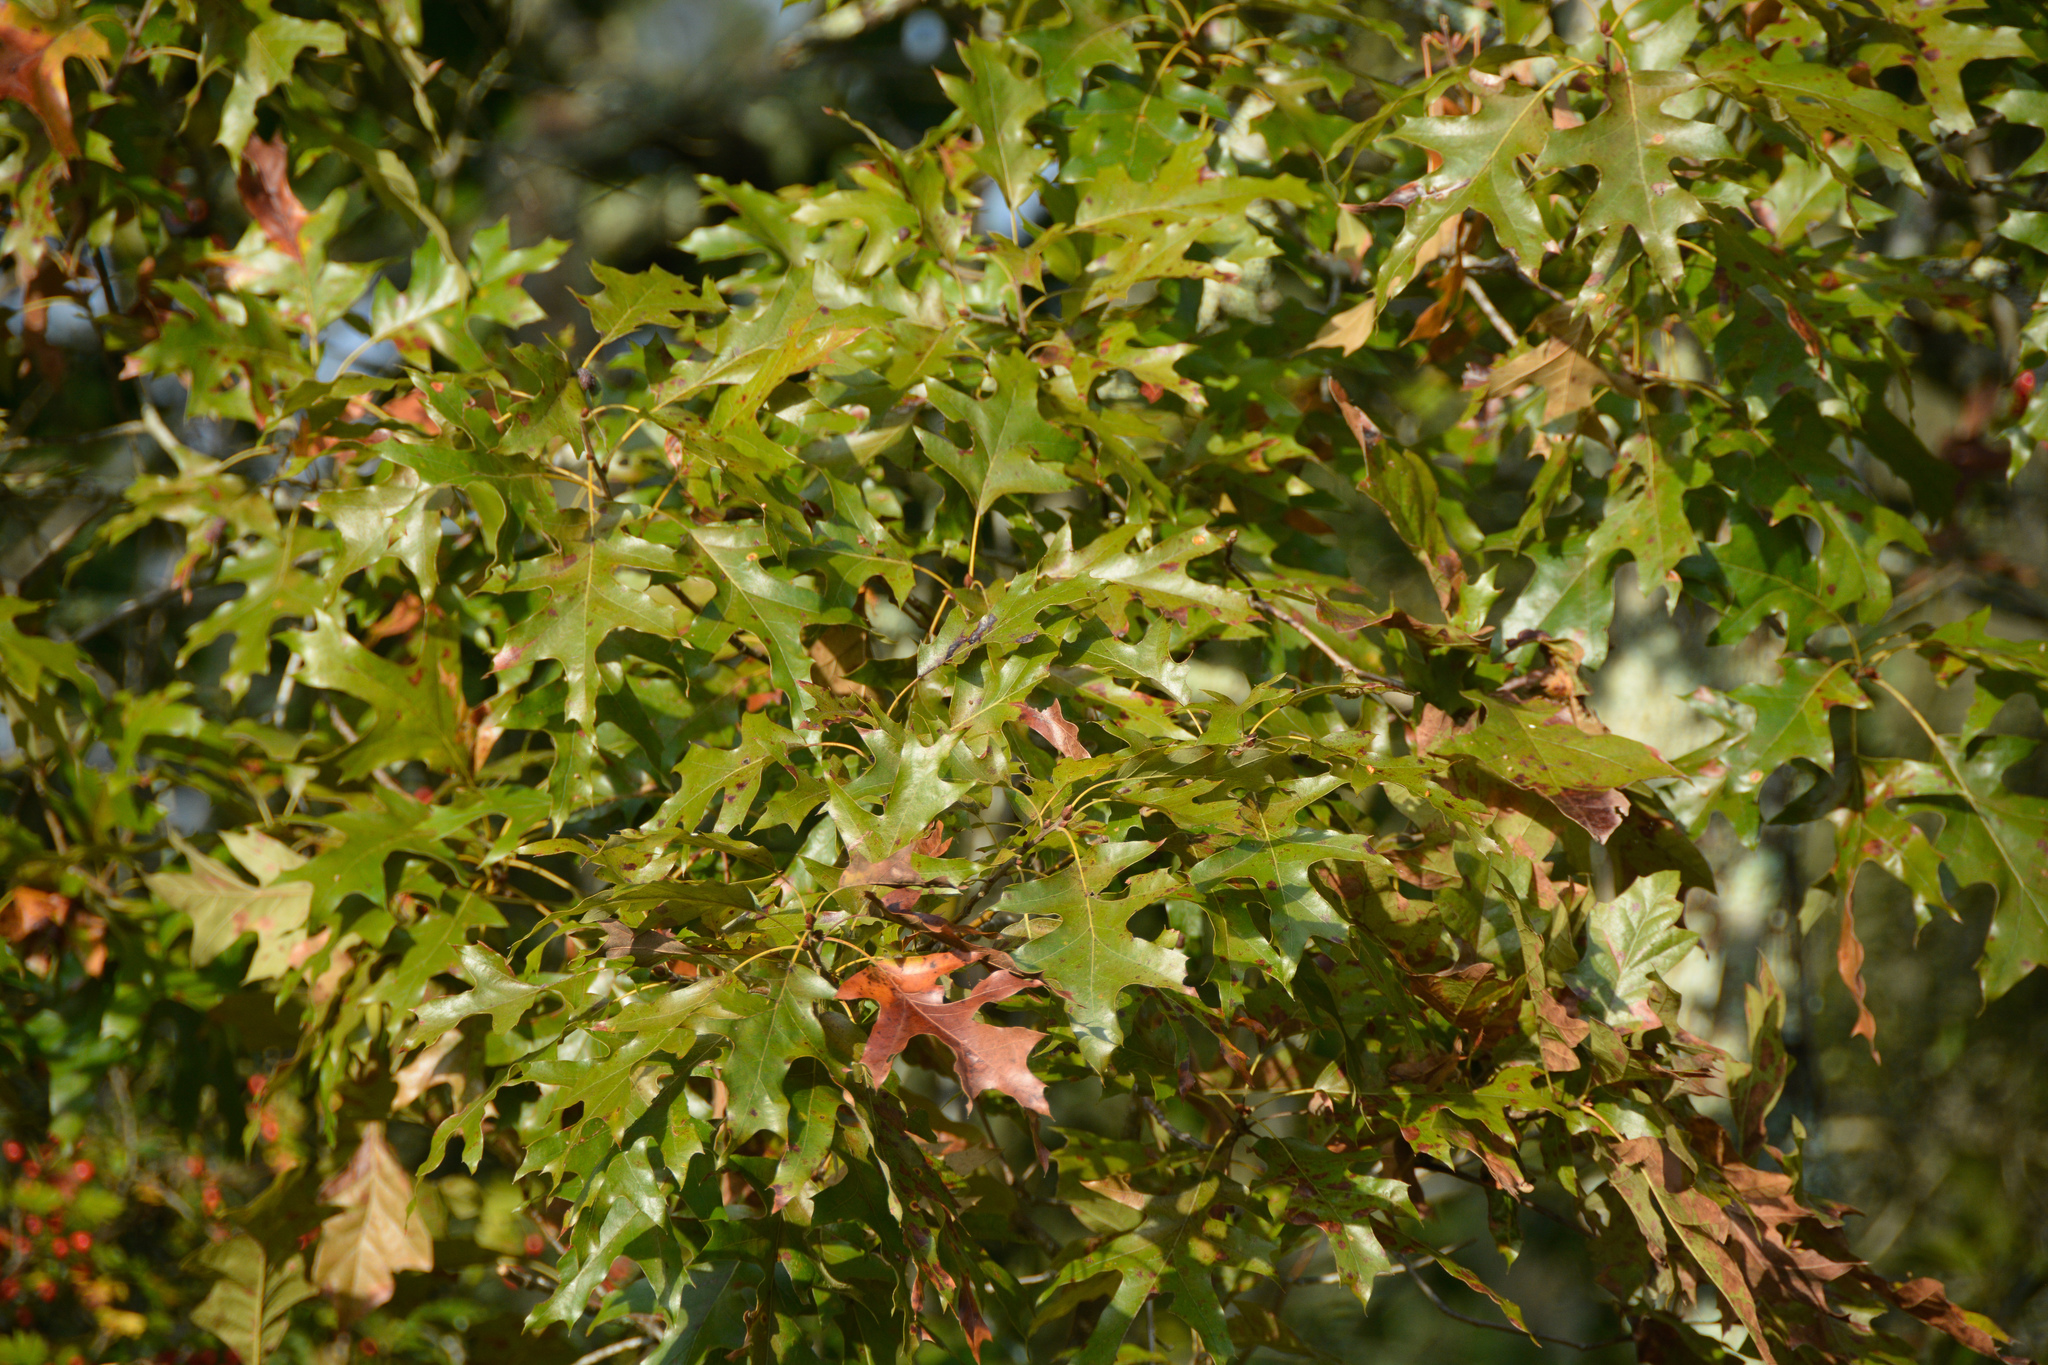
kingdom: Plantae
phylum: Tracheophyta
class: Magnoliopsida
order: Fagales
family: Fagaceae
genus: Quercus
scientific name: Quercus shumardii
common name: Shumard oak
